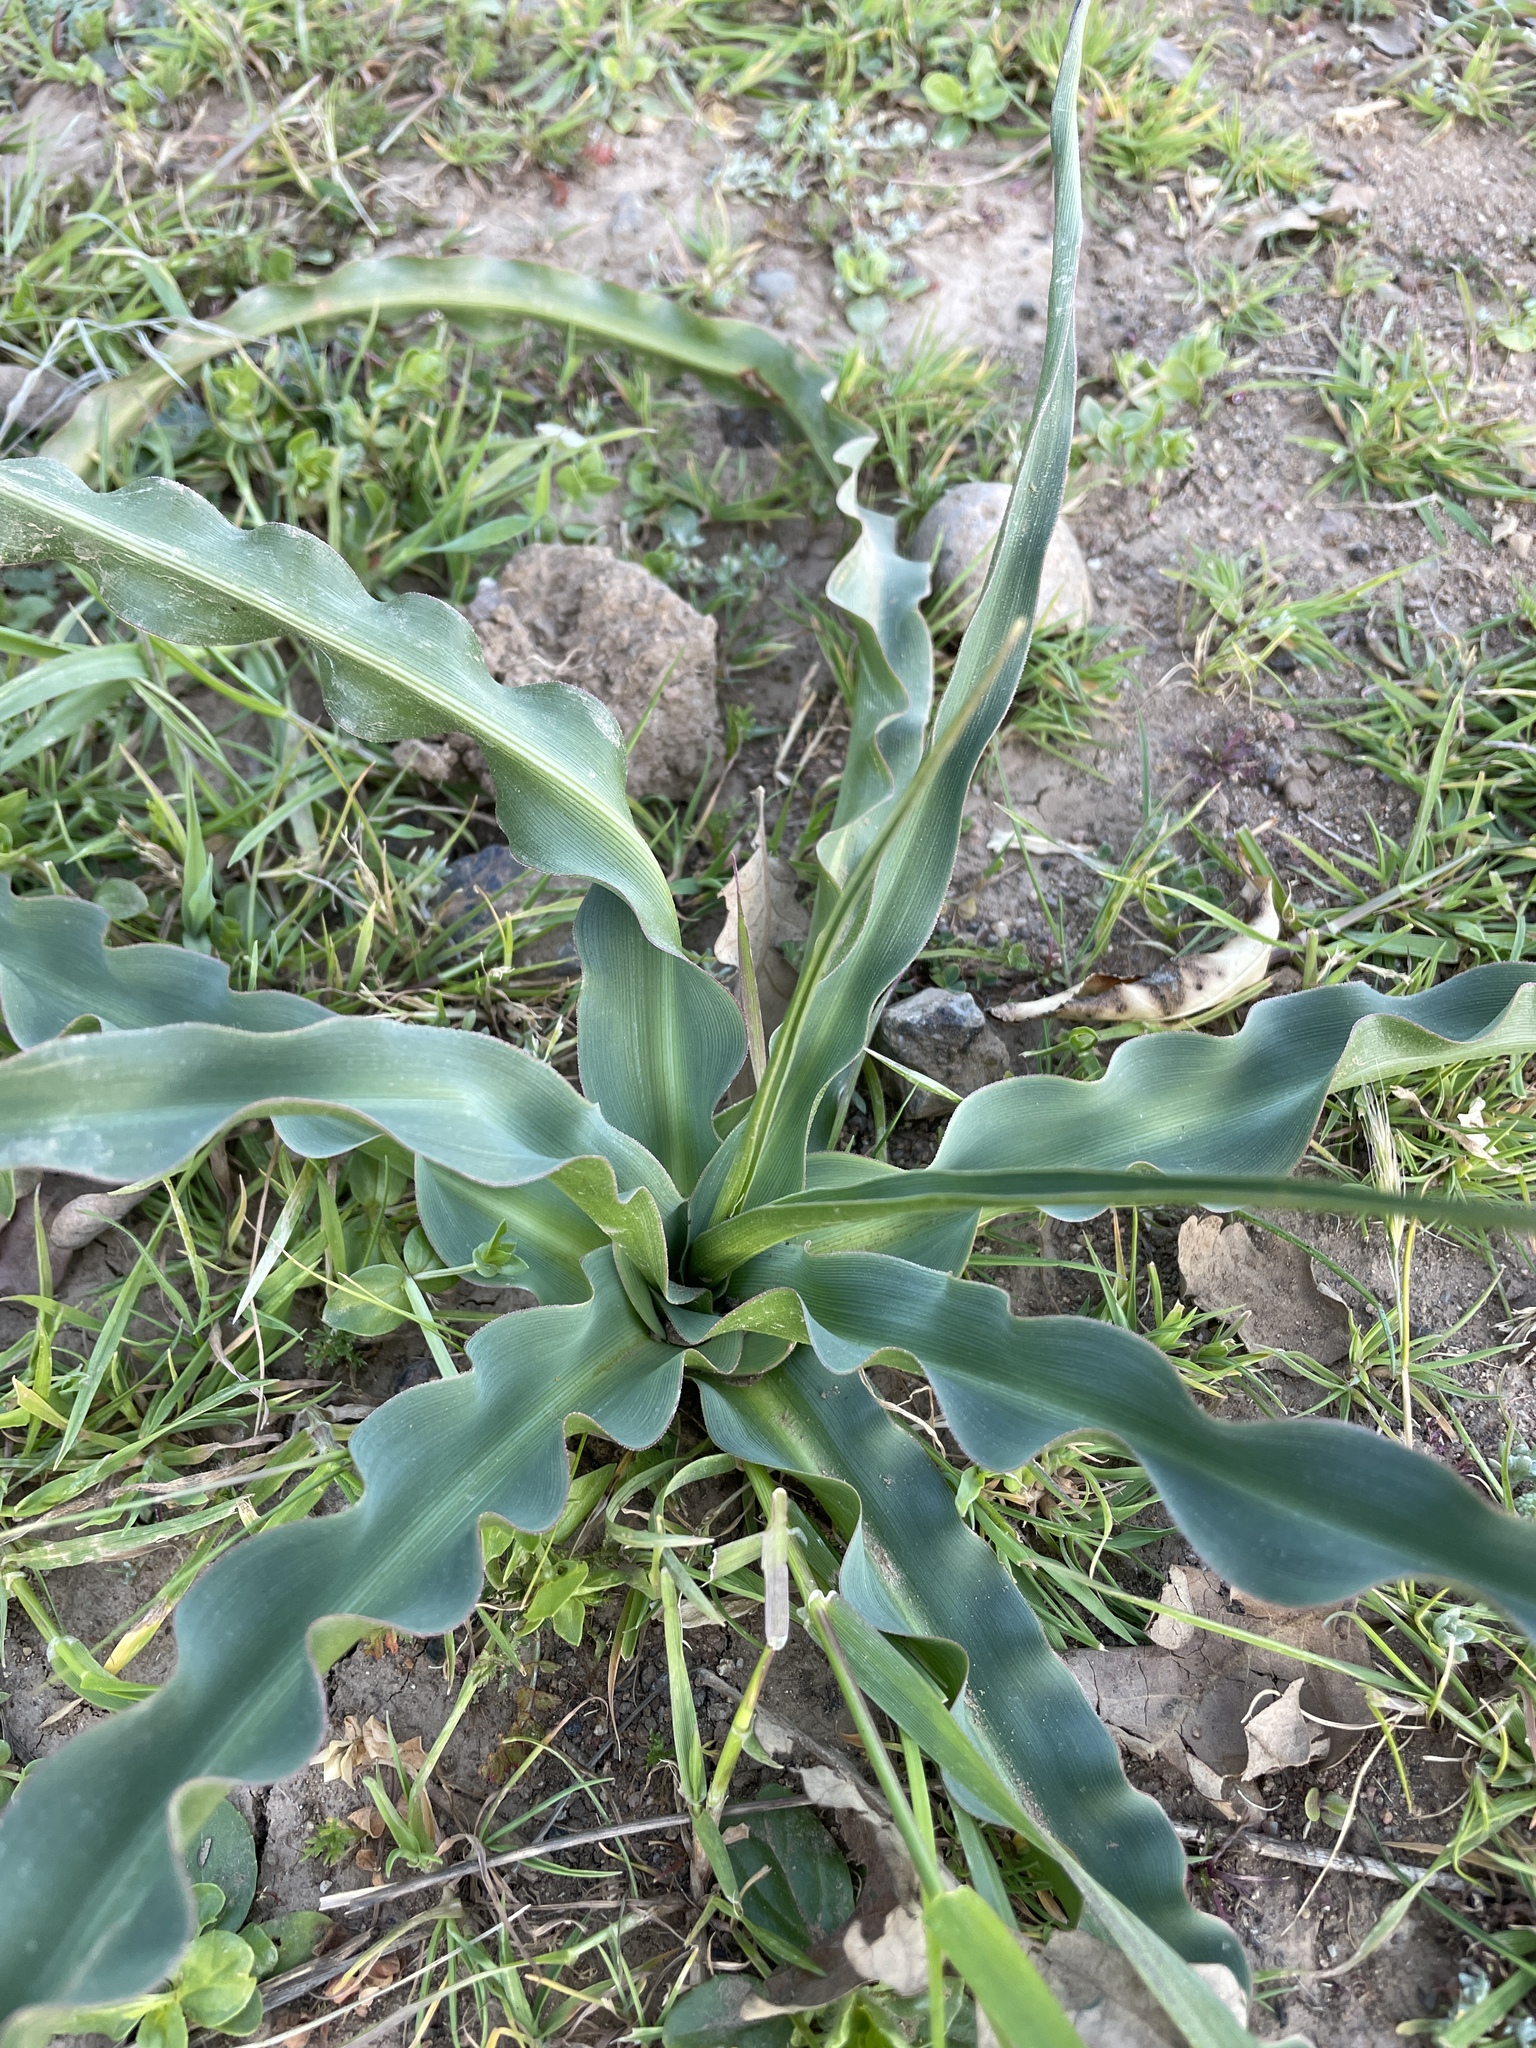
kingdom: Plantae
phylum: Tracheophyta
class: Liliopsida
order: Asparagales
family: Asparagaceae
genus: Chlorogalum
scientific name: Chlorogalum pomeridianum
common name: Amole
